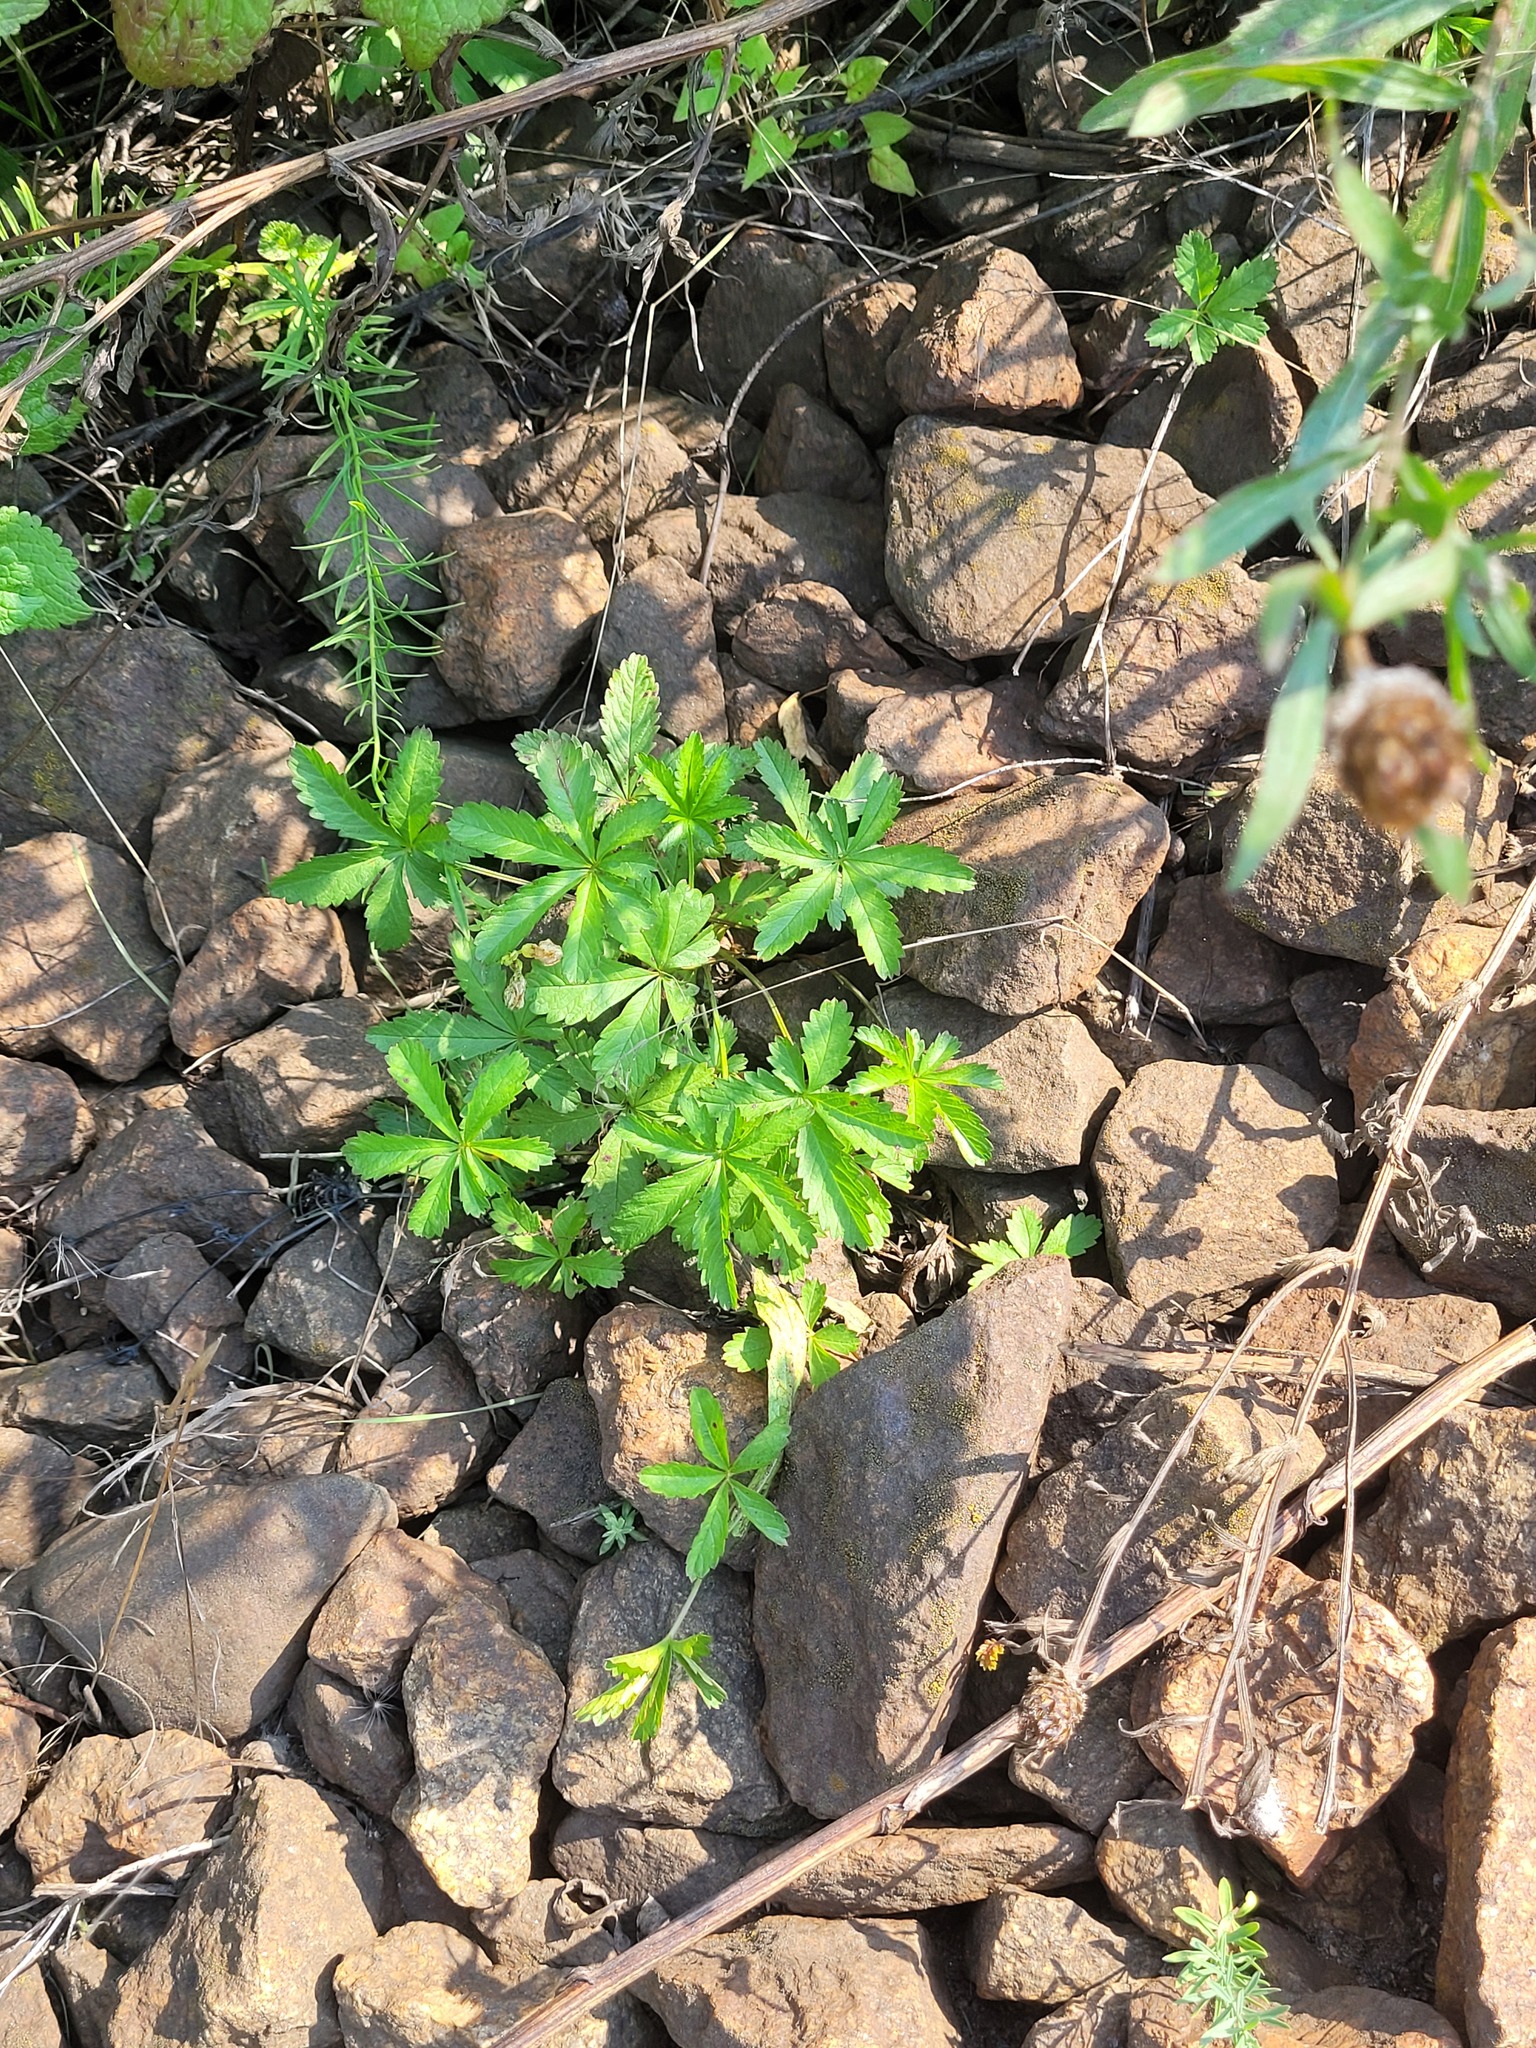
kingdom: Plantae
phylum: Tracheophyta
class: Magnoliopsida
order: Rosales
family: Rosaceae
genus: Potentilla
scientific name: Potentilla reptans
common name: Creeping cinquefoil
